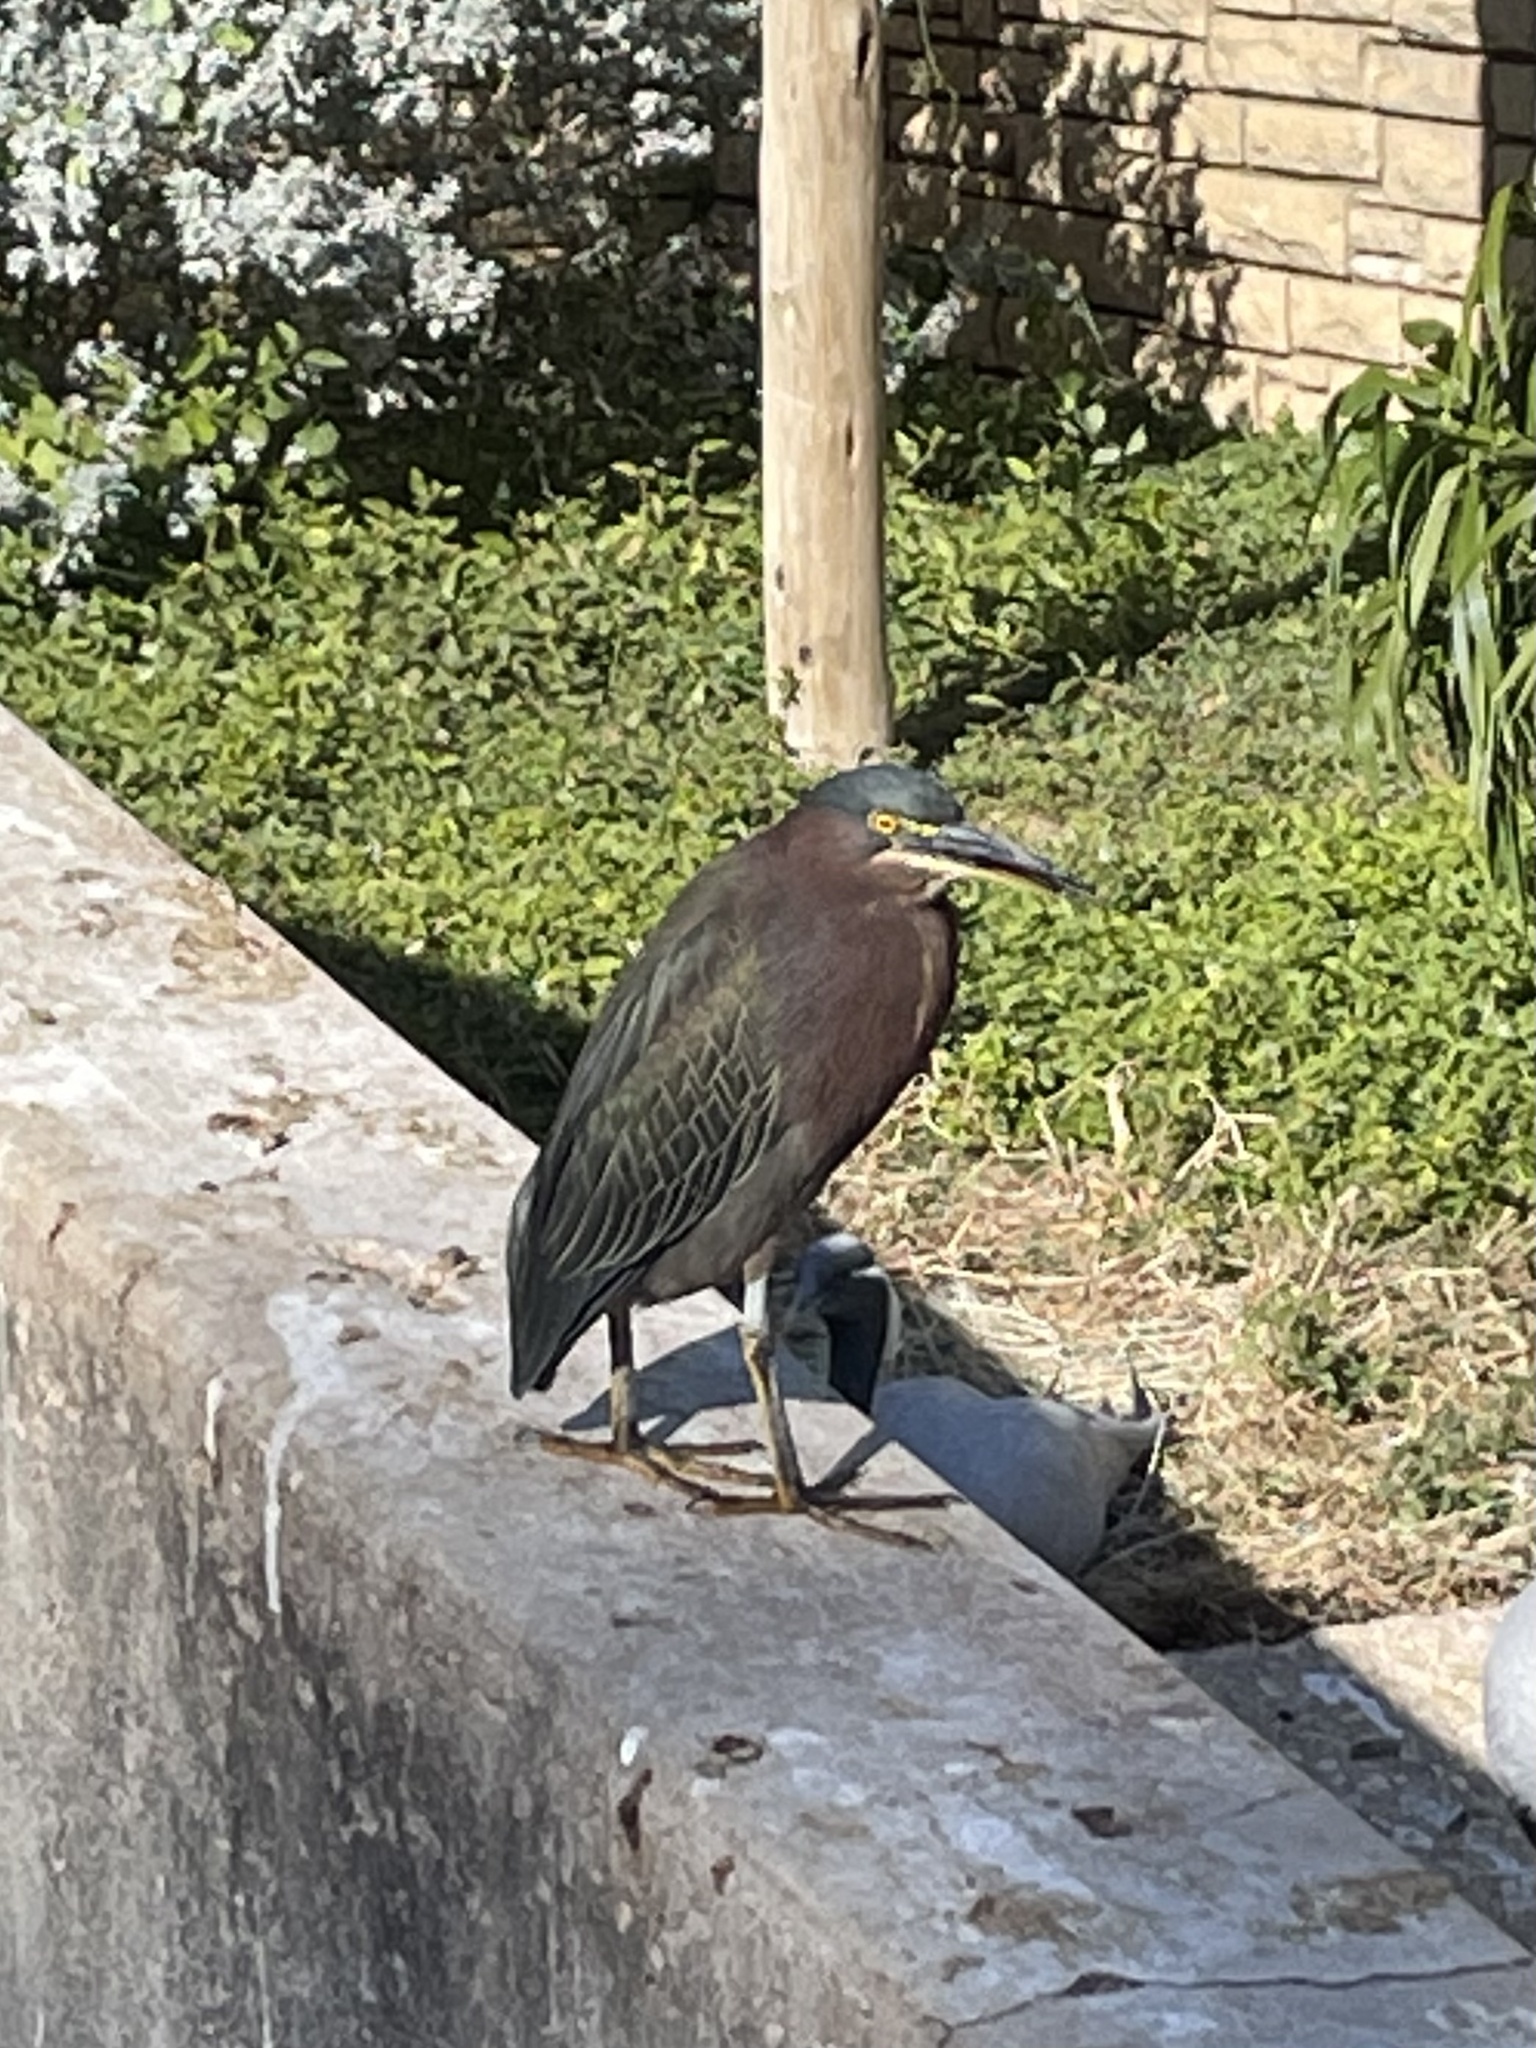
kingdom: Animalia
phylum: Chordata
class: Aves
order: Pelecaniformes
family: Ardeidae
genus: Butorides
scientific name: Butorides virescens
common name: Green heron
